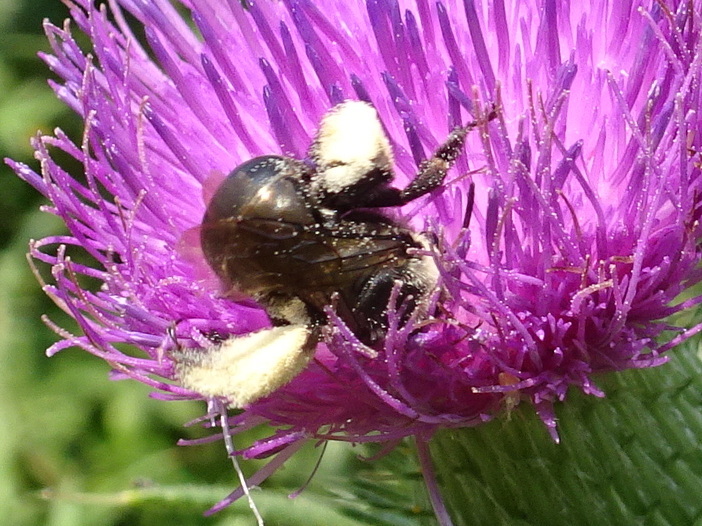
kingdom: Animalia
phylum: Arthropoda
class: Insecta
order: Hymenoptera
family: Apidae
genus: Melissodes
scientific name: Melissodes desponsus
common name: Thistle long-horned bee
